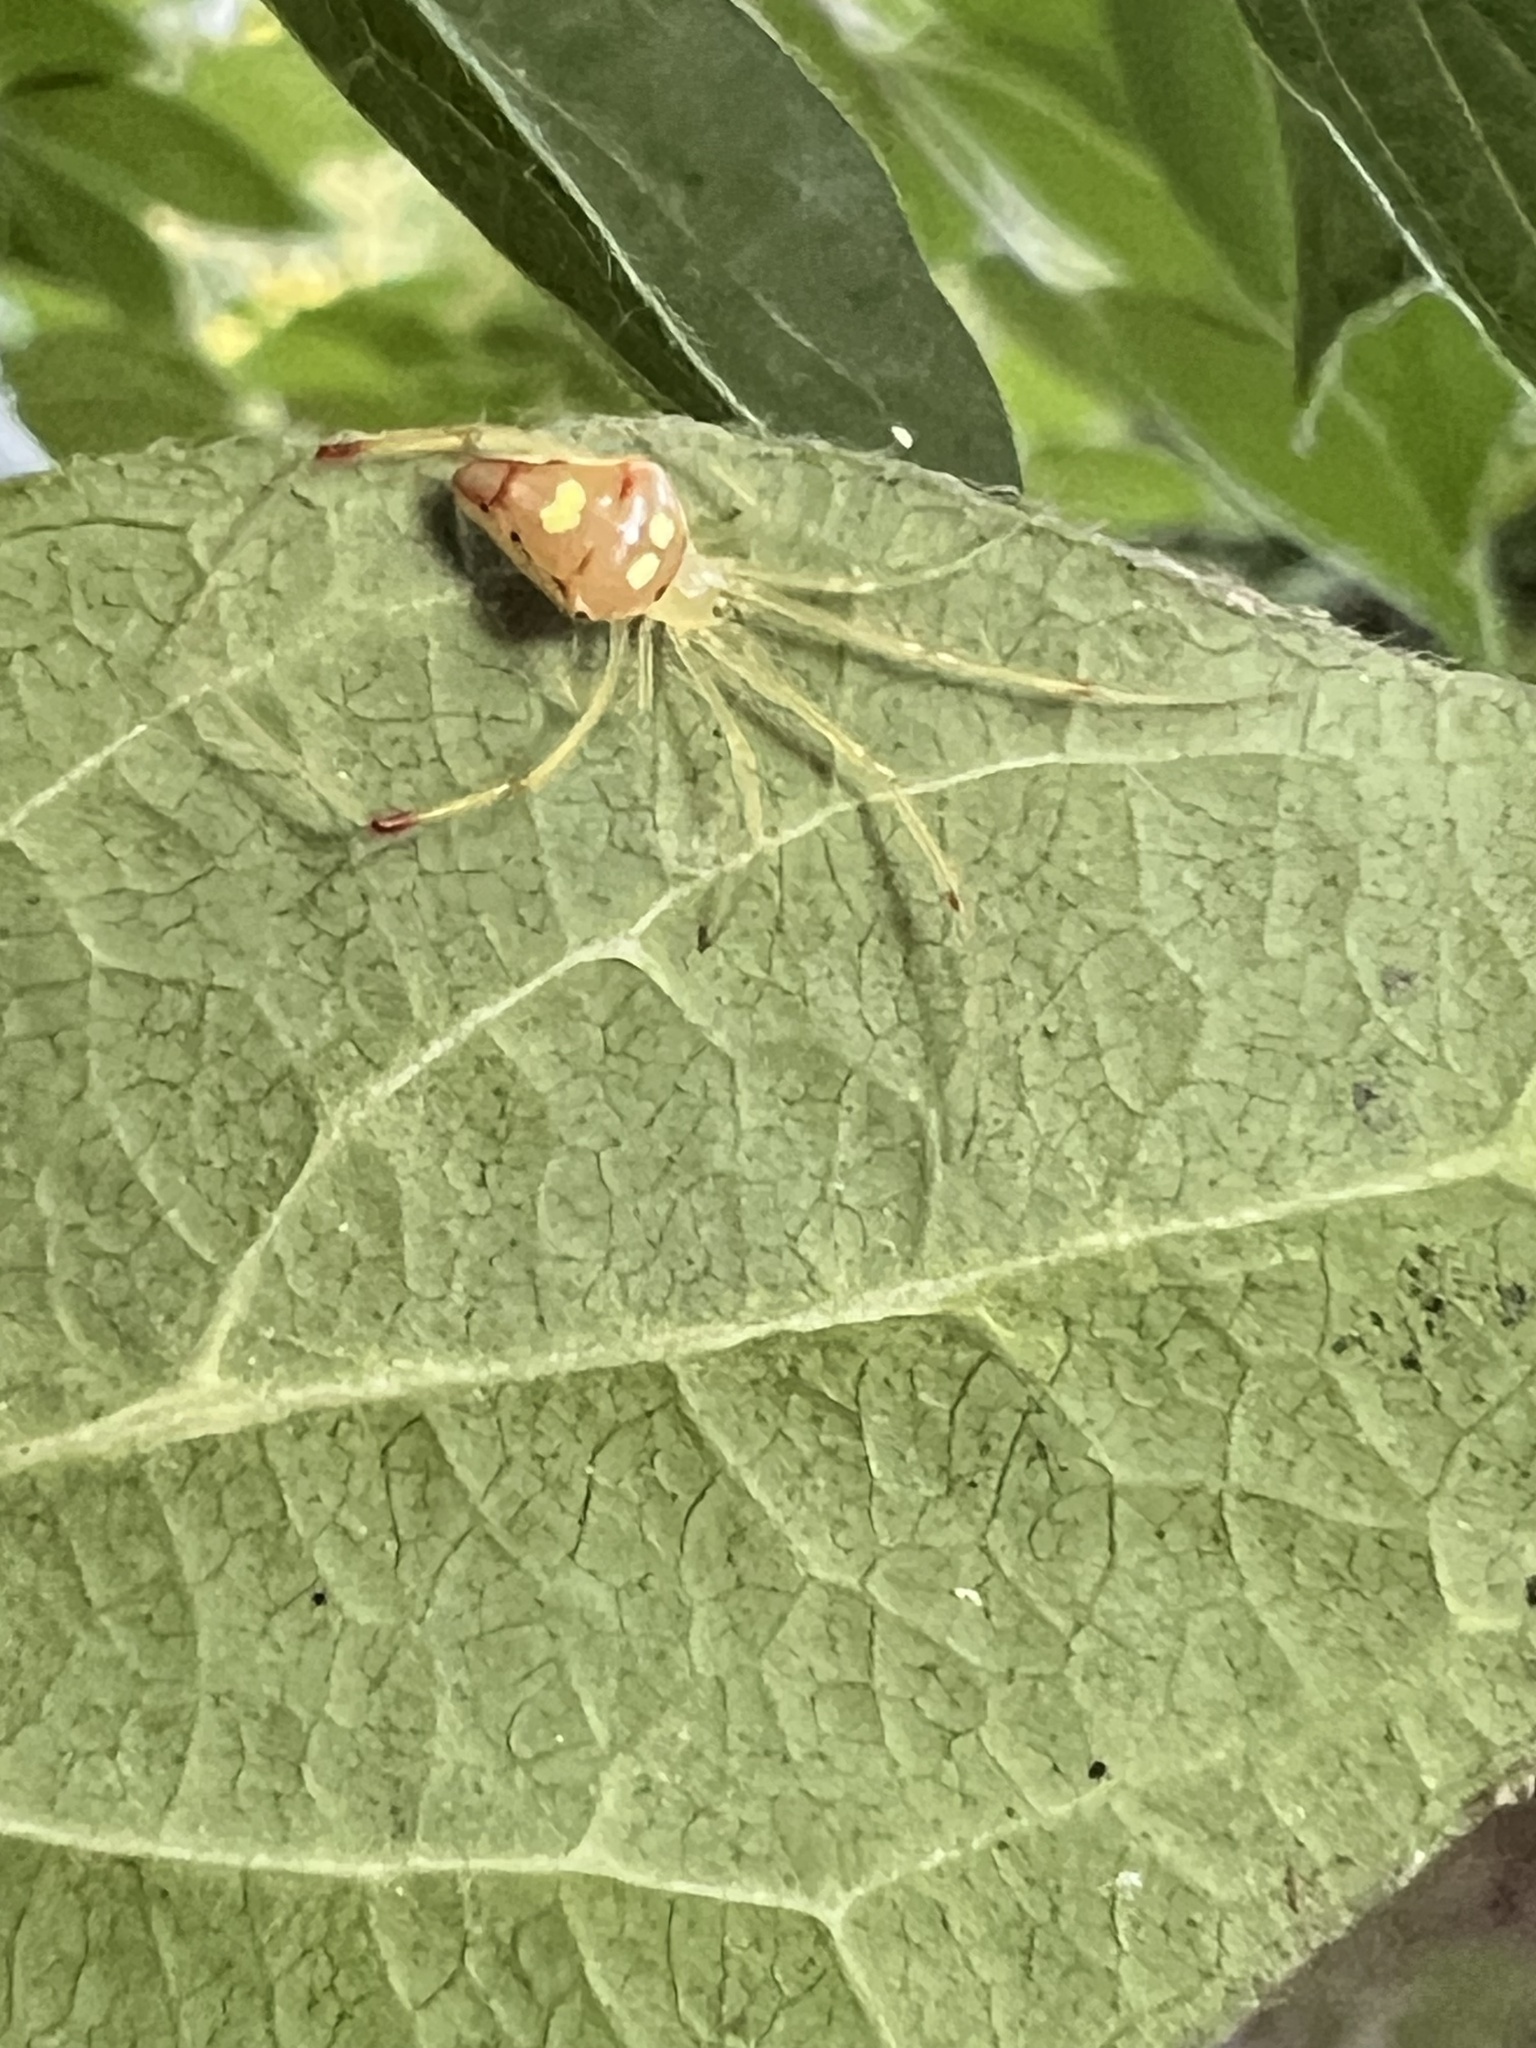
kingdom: Animalia
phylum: Arthropoda
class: Arachnida
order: Araneae
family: Theridiidae
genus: Spintharus
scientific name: Spintharus flavidus
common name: Cobweb spiders
